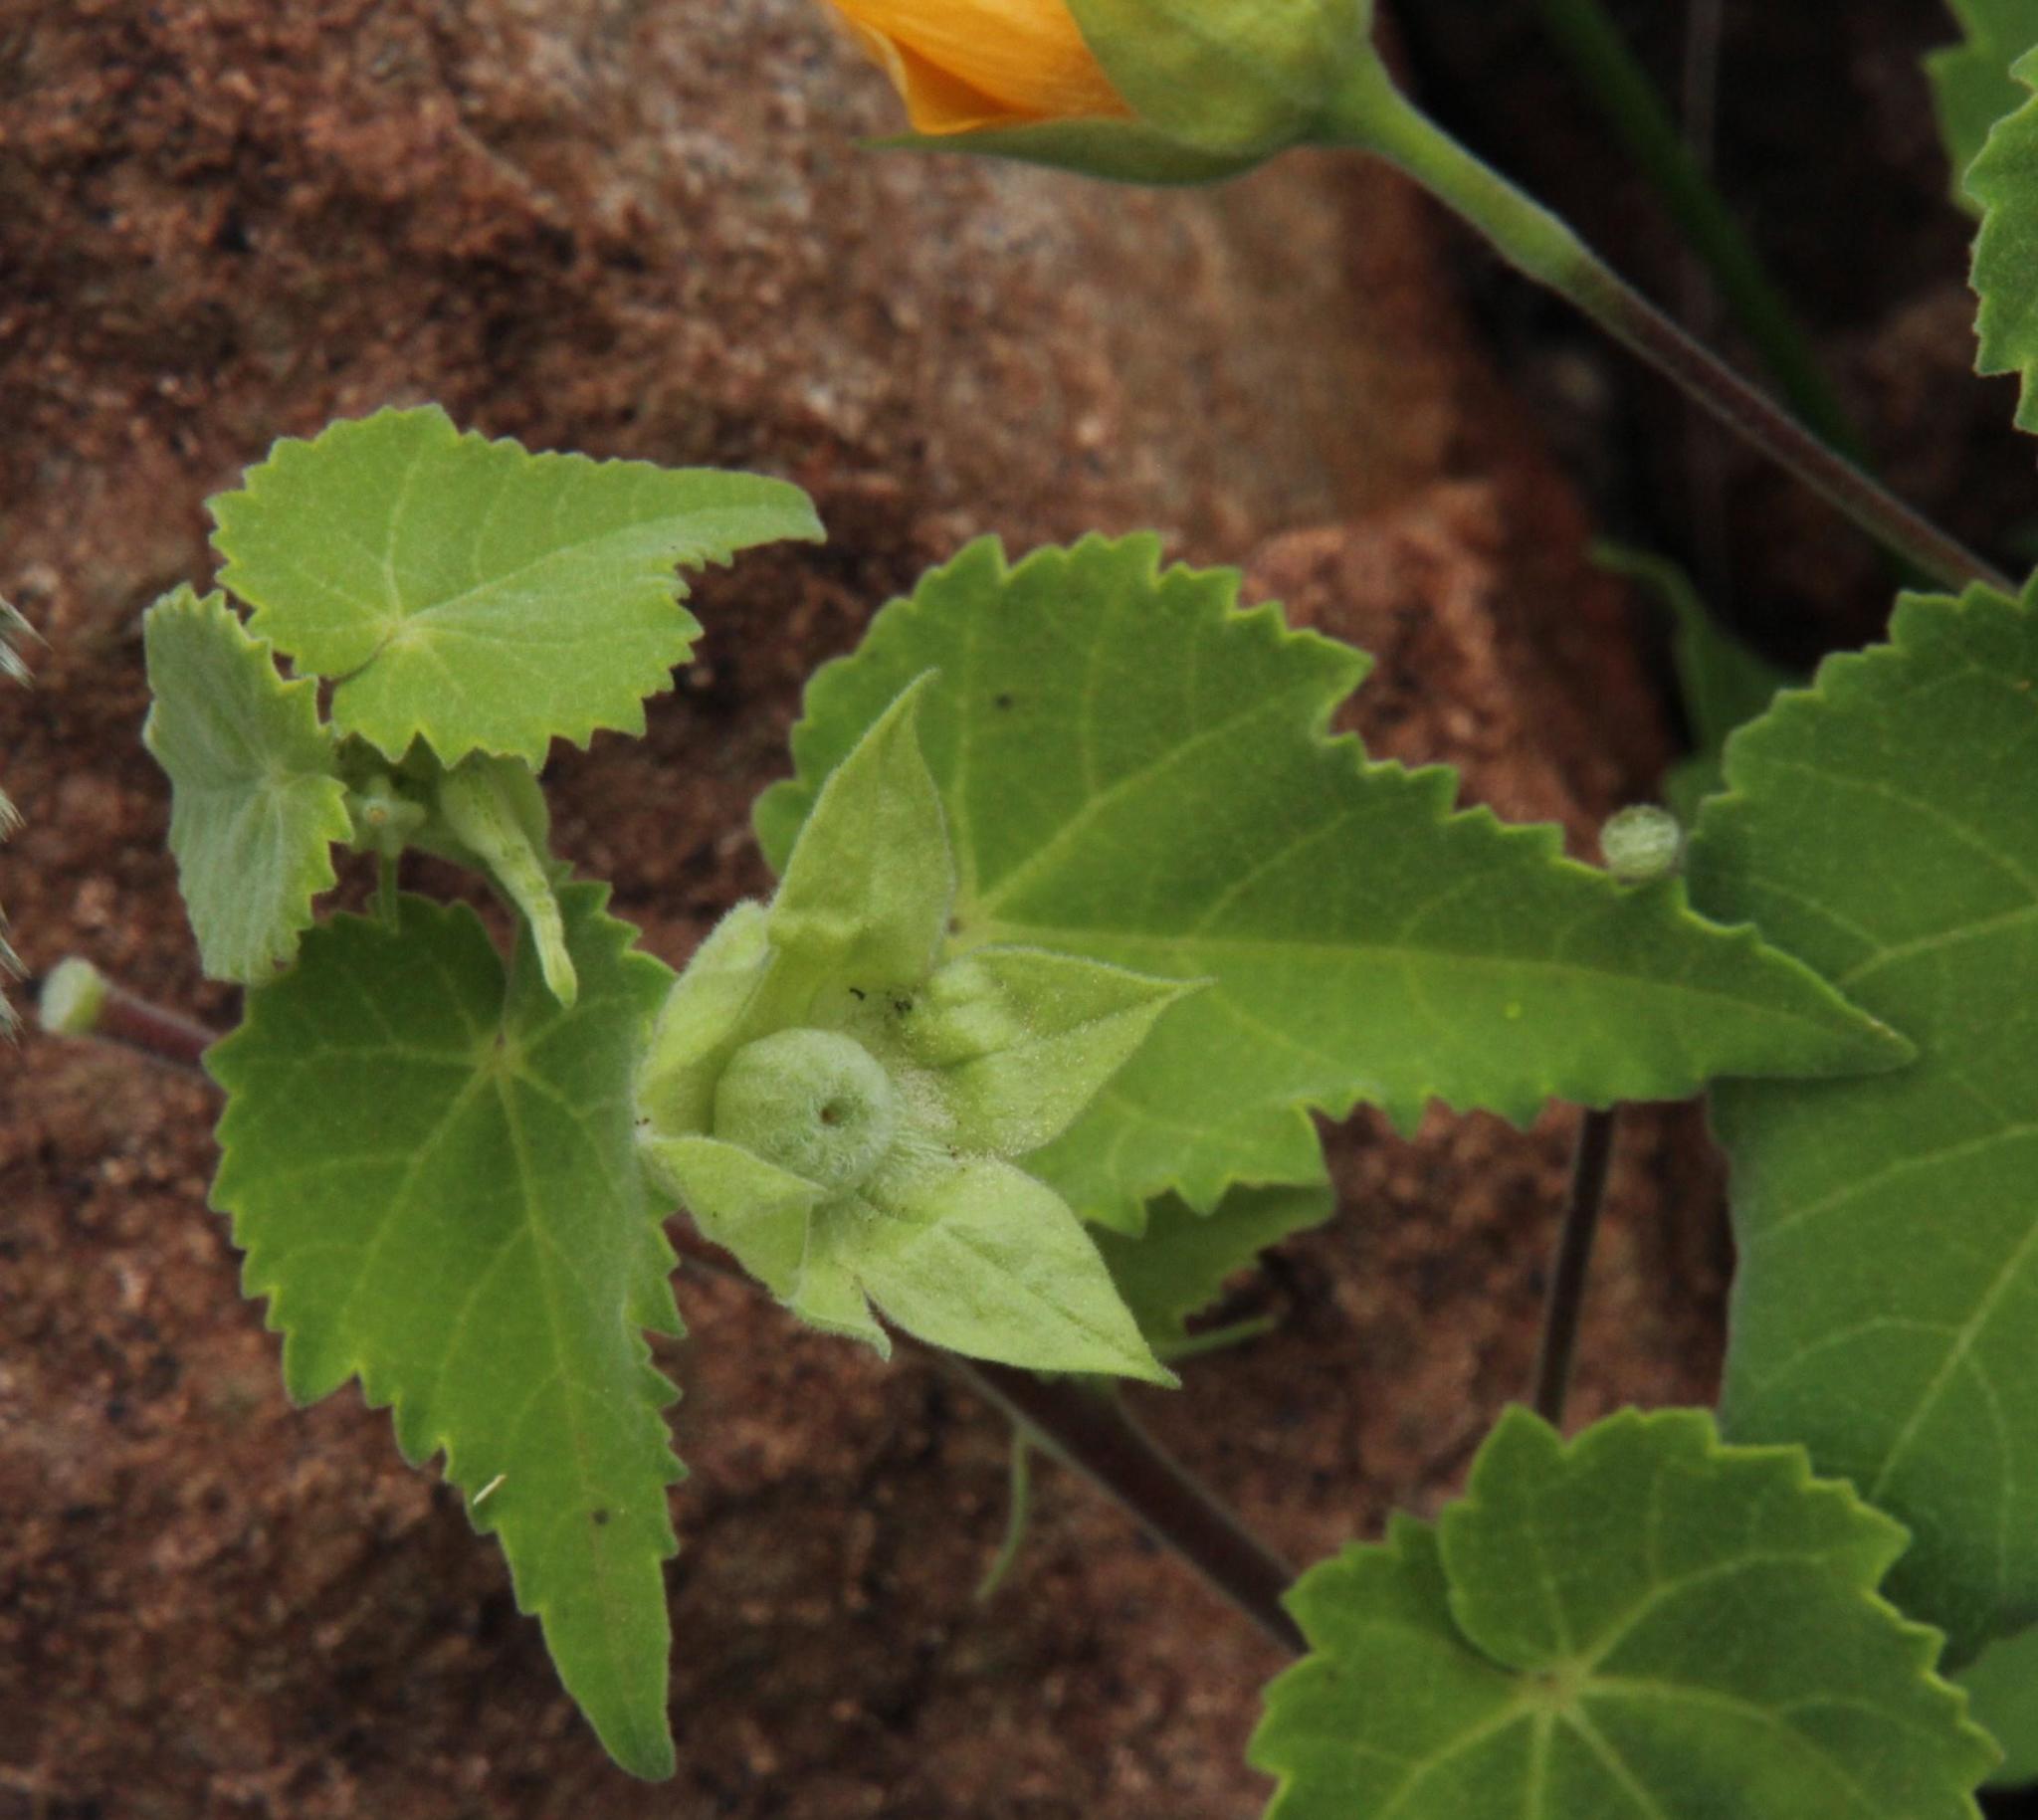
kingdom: Plantae
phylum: Tracheophyta
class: Magnoliopsida
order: Malvales
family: Malvaceae
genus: Abutilon
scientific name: Abutilon sonneratianum
